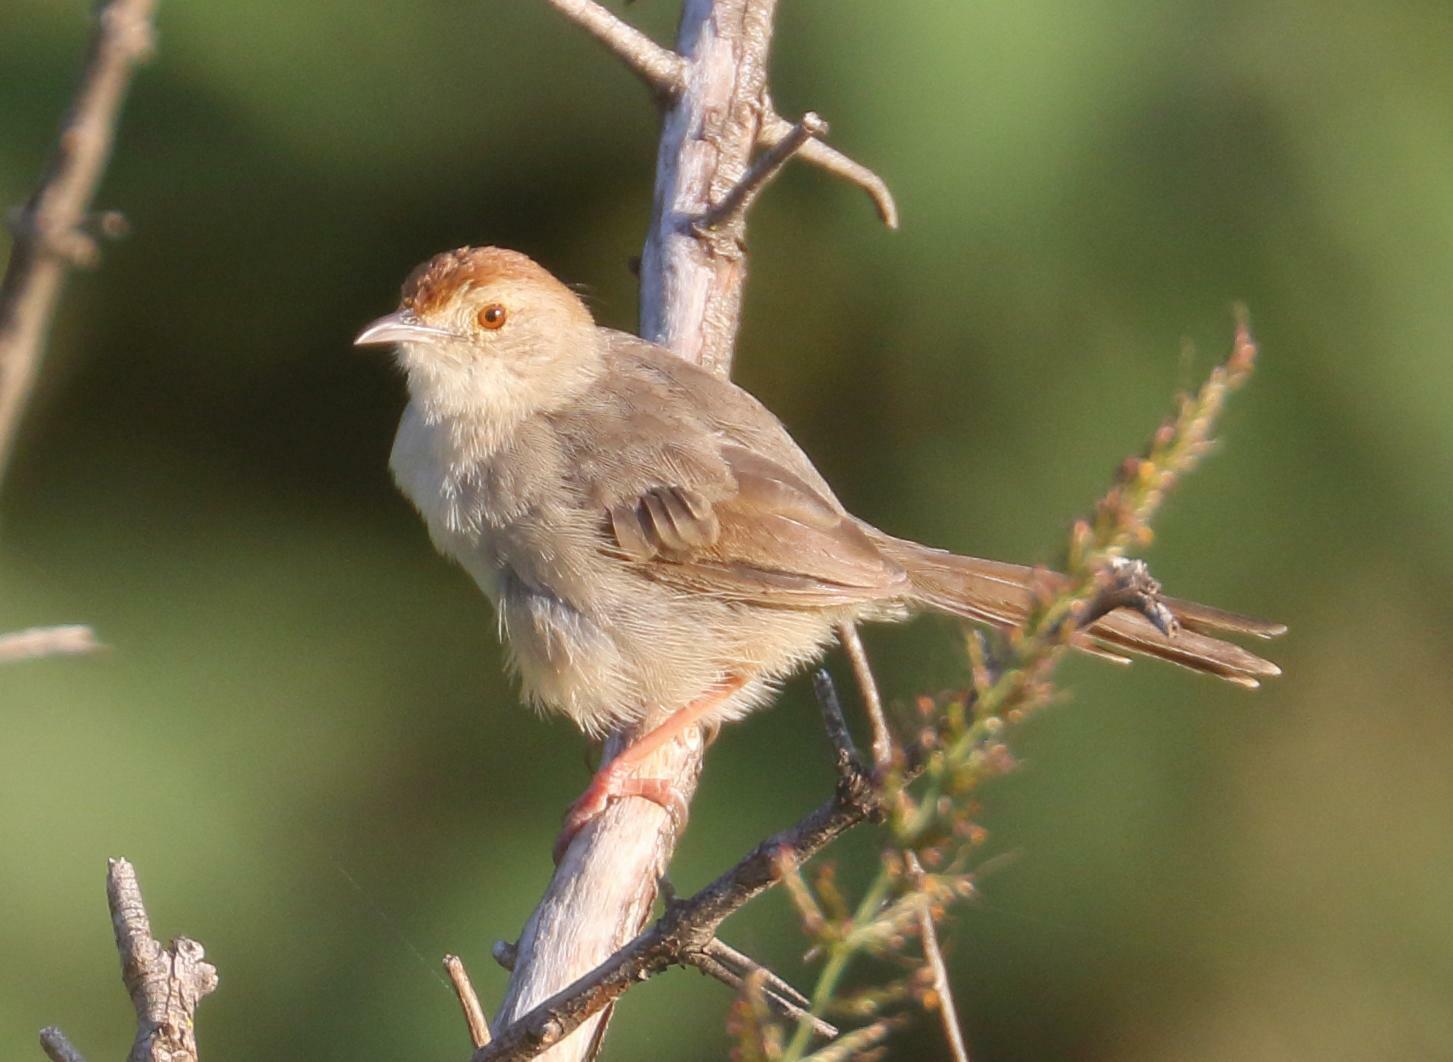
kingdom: Animalia
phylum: Chordata
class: Aves
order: Passeriformes
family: Cisticolidae
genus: Cisticola
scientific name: Cisticola aberrans
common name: Lazy cisticola
